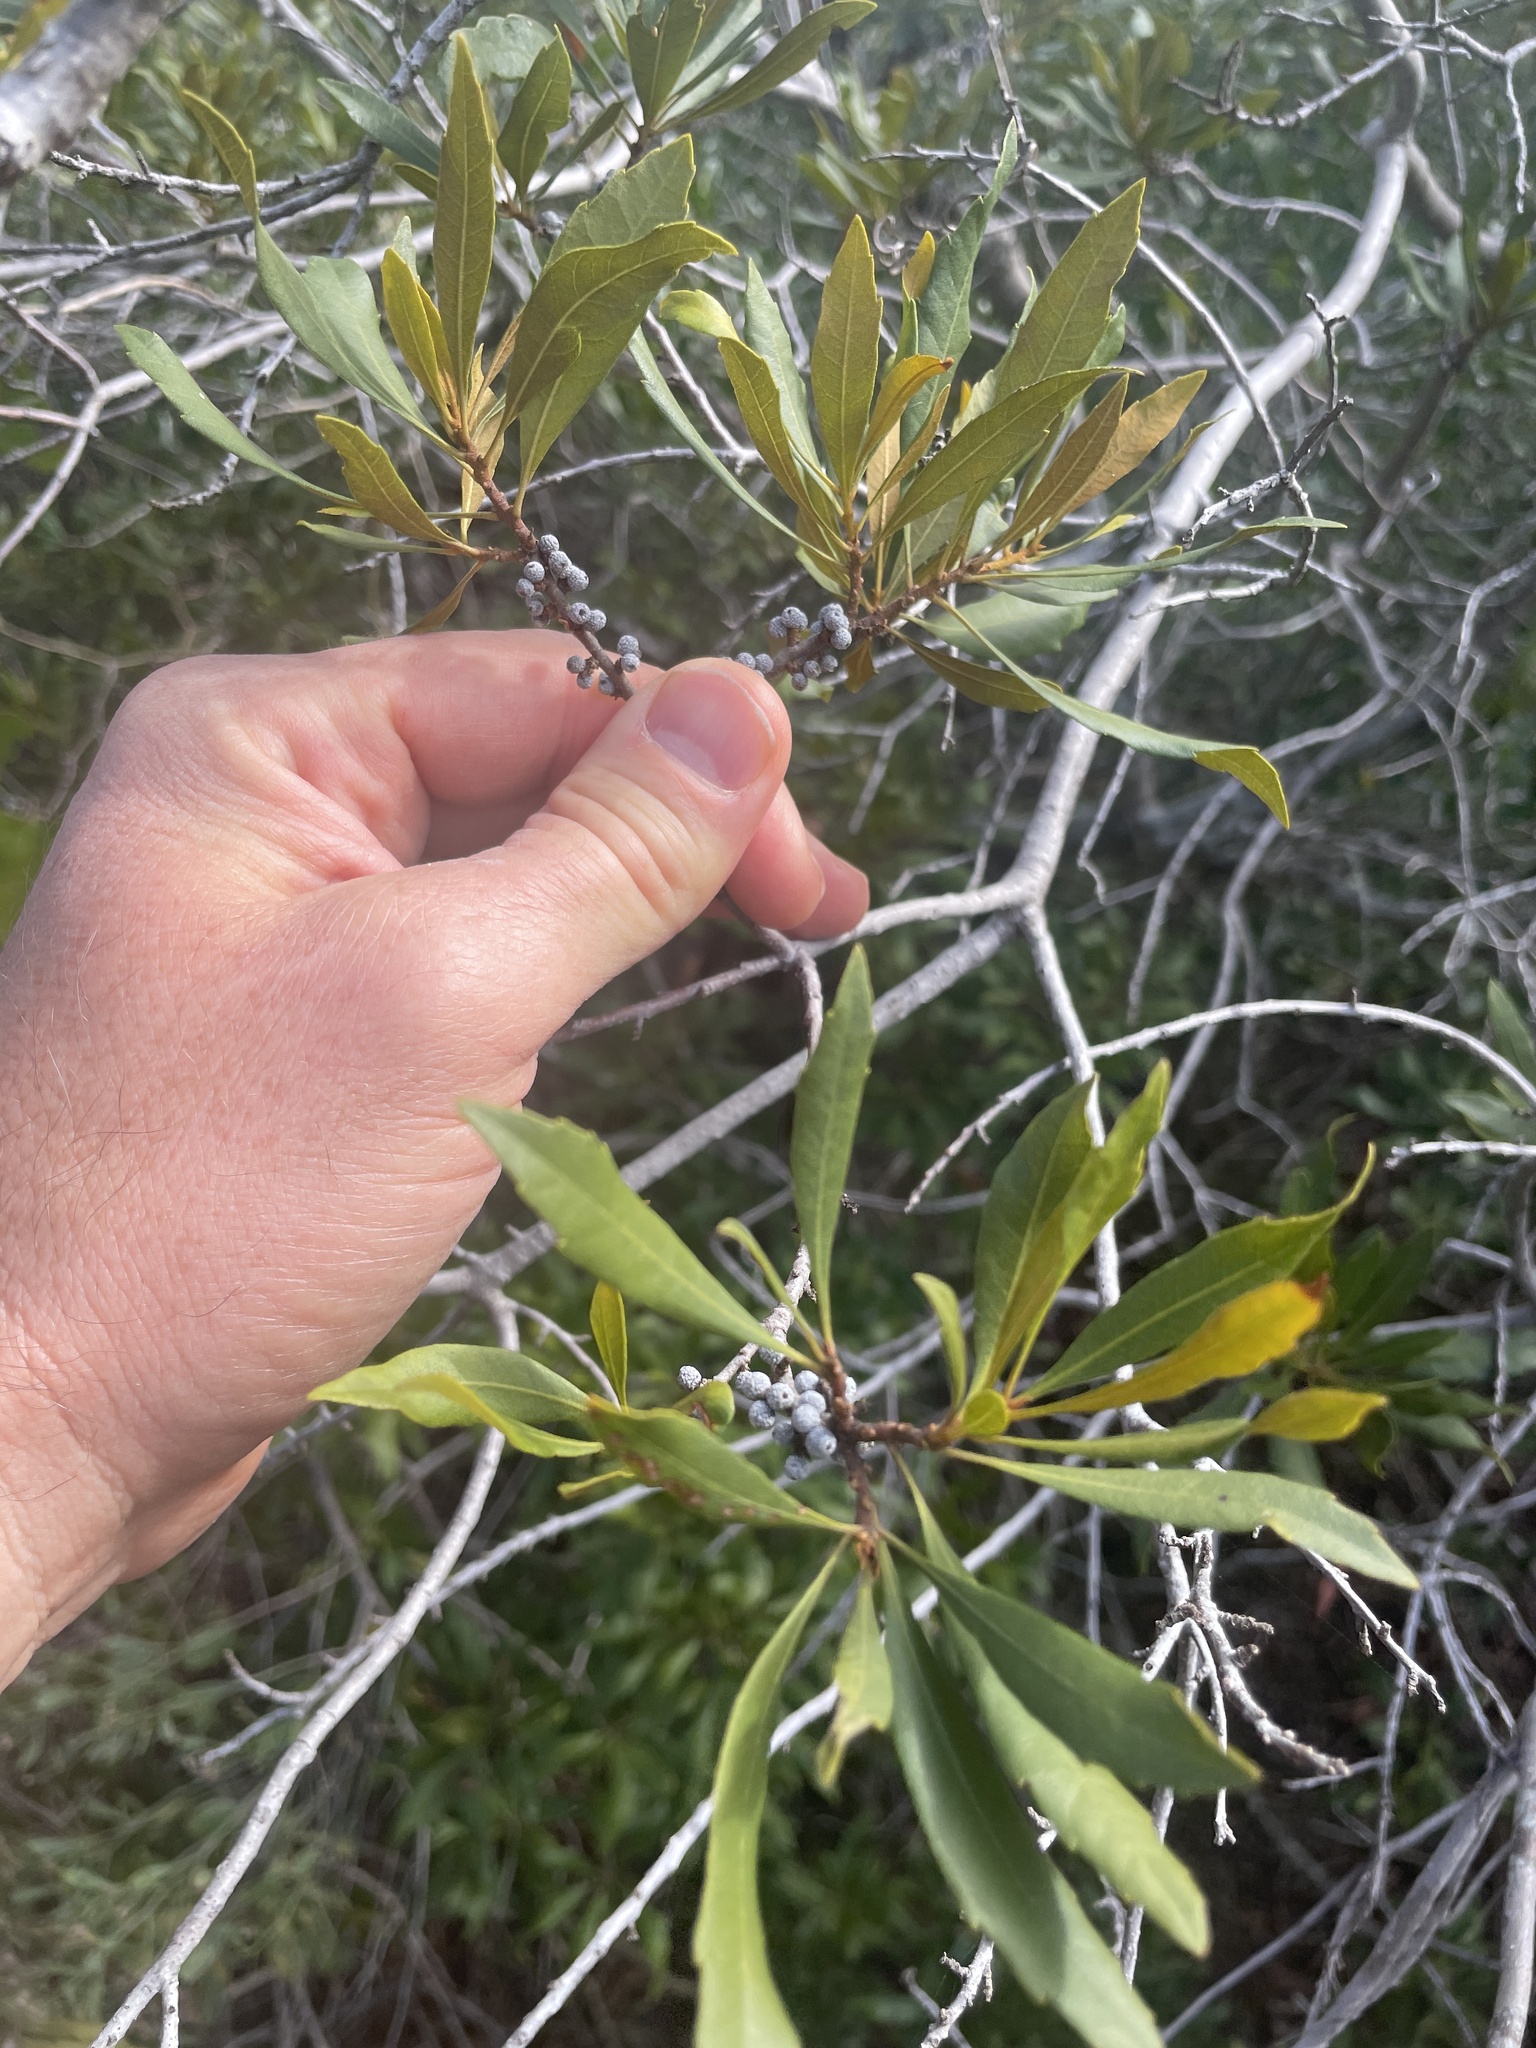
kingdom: Plantae
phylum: Tracheophyta
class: Magnoliopsida
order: Fagales
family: Myricaceae
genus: Morella
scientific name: Morella cerifera
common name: Wax myrtle
